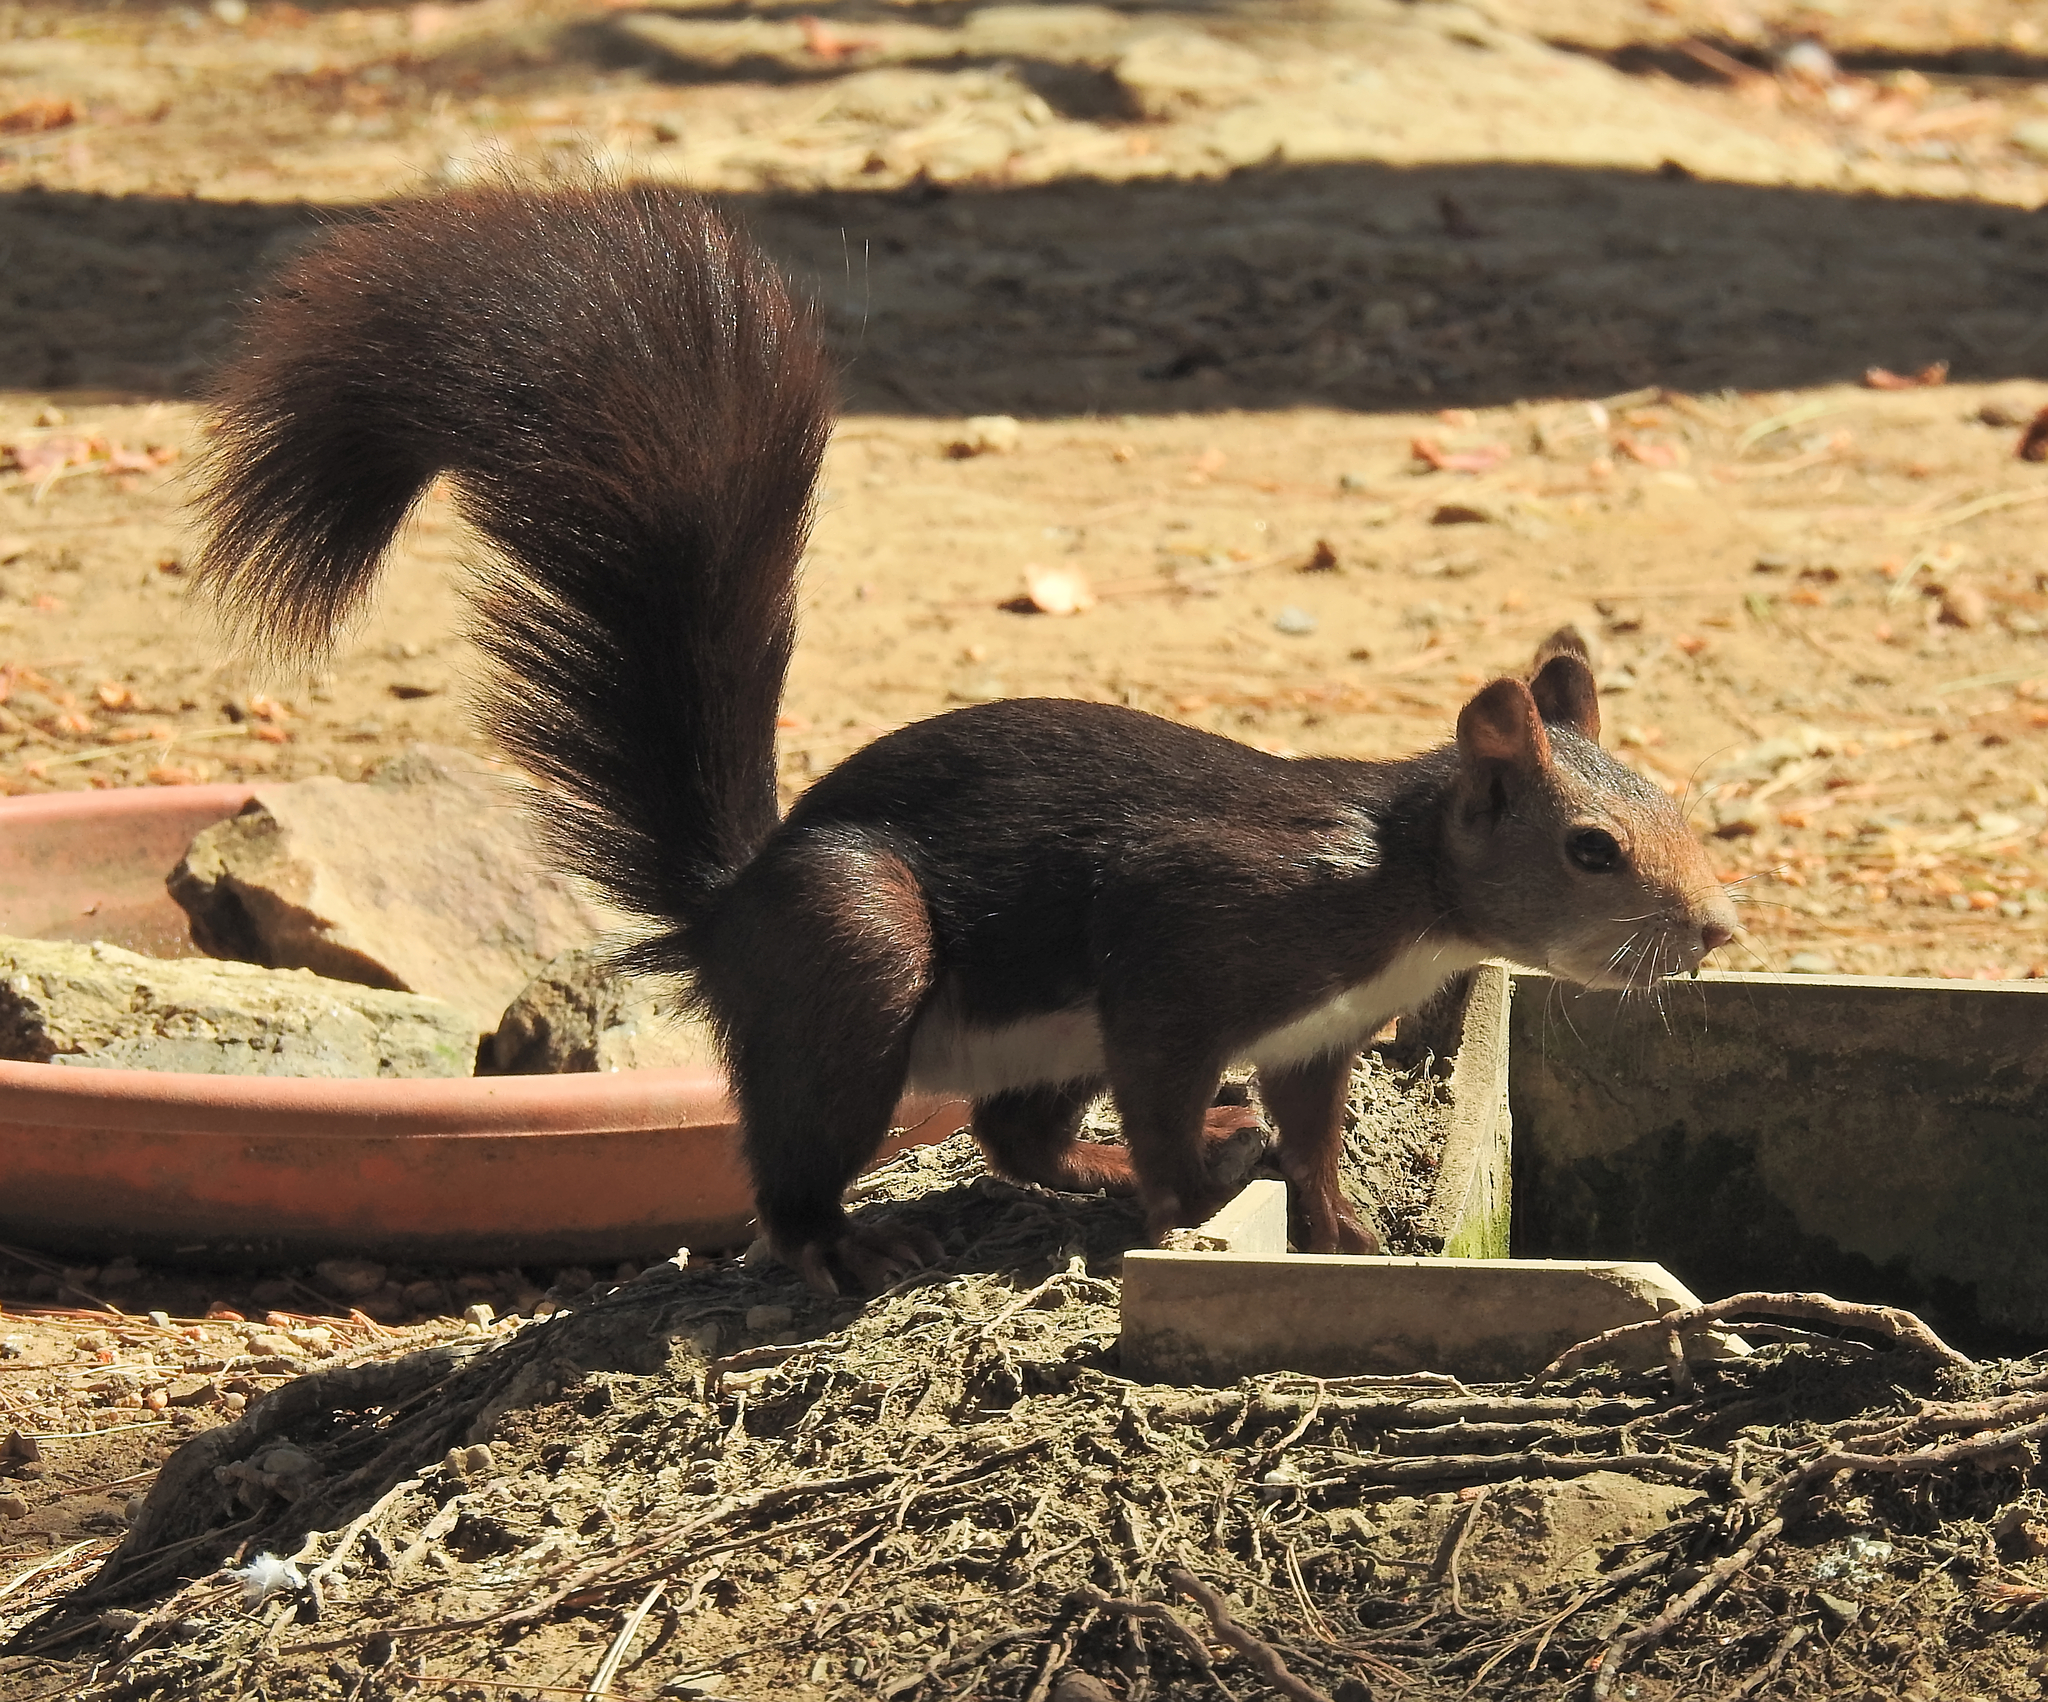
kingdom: Animalia
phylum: Chordata
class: Mammalia
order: Rodentia
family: Sciuridae
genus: Sciurus
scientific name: Sciurus vulgaris
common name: Eurasian red squirrel
